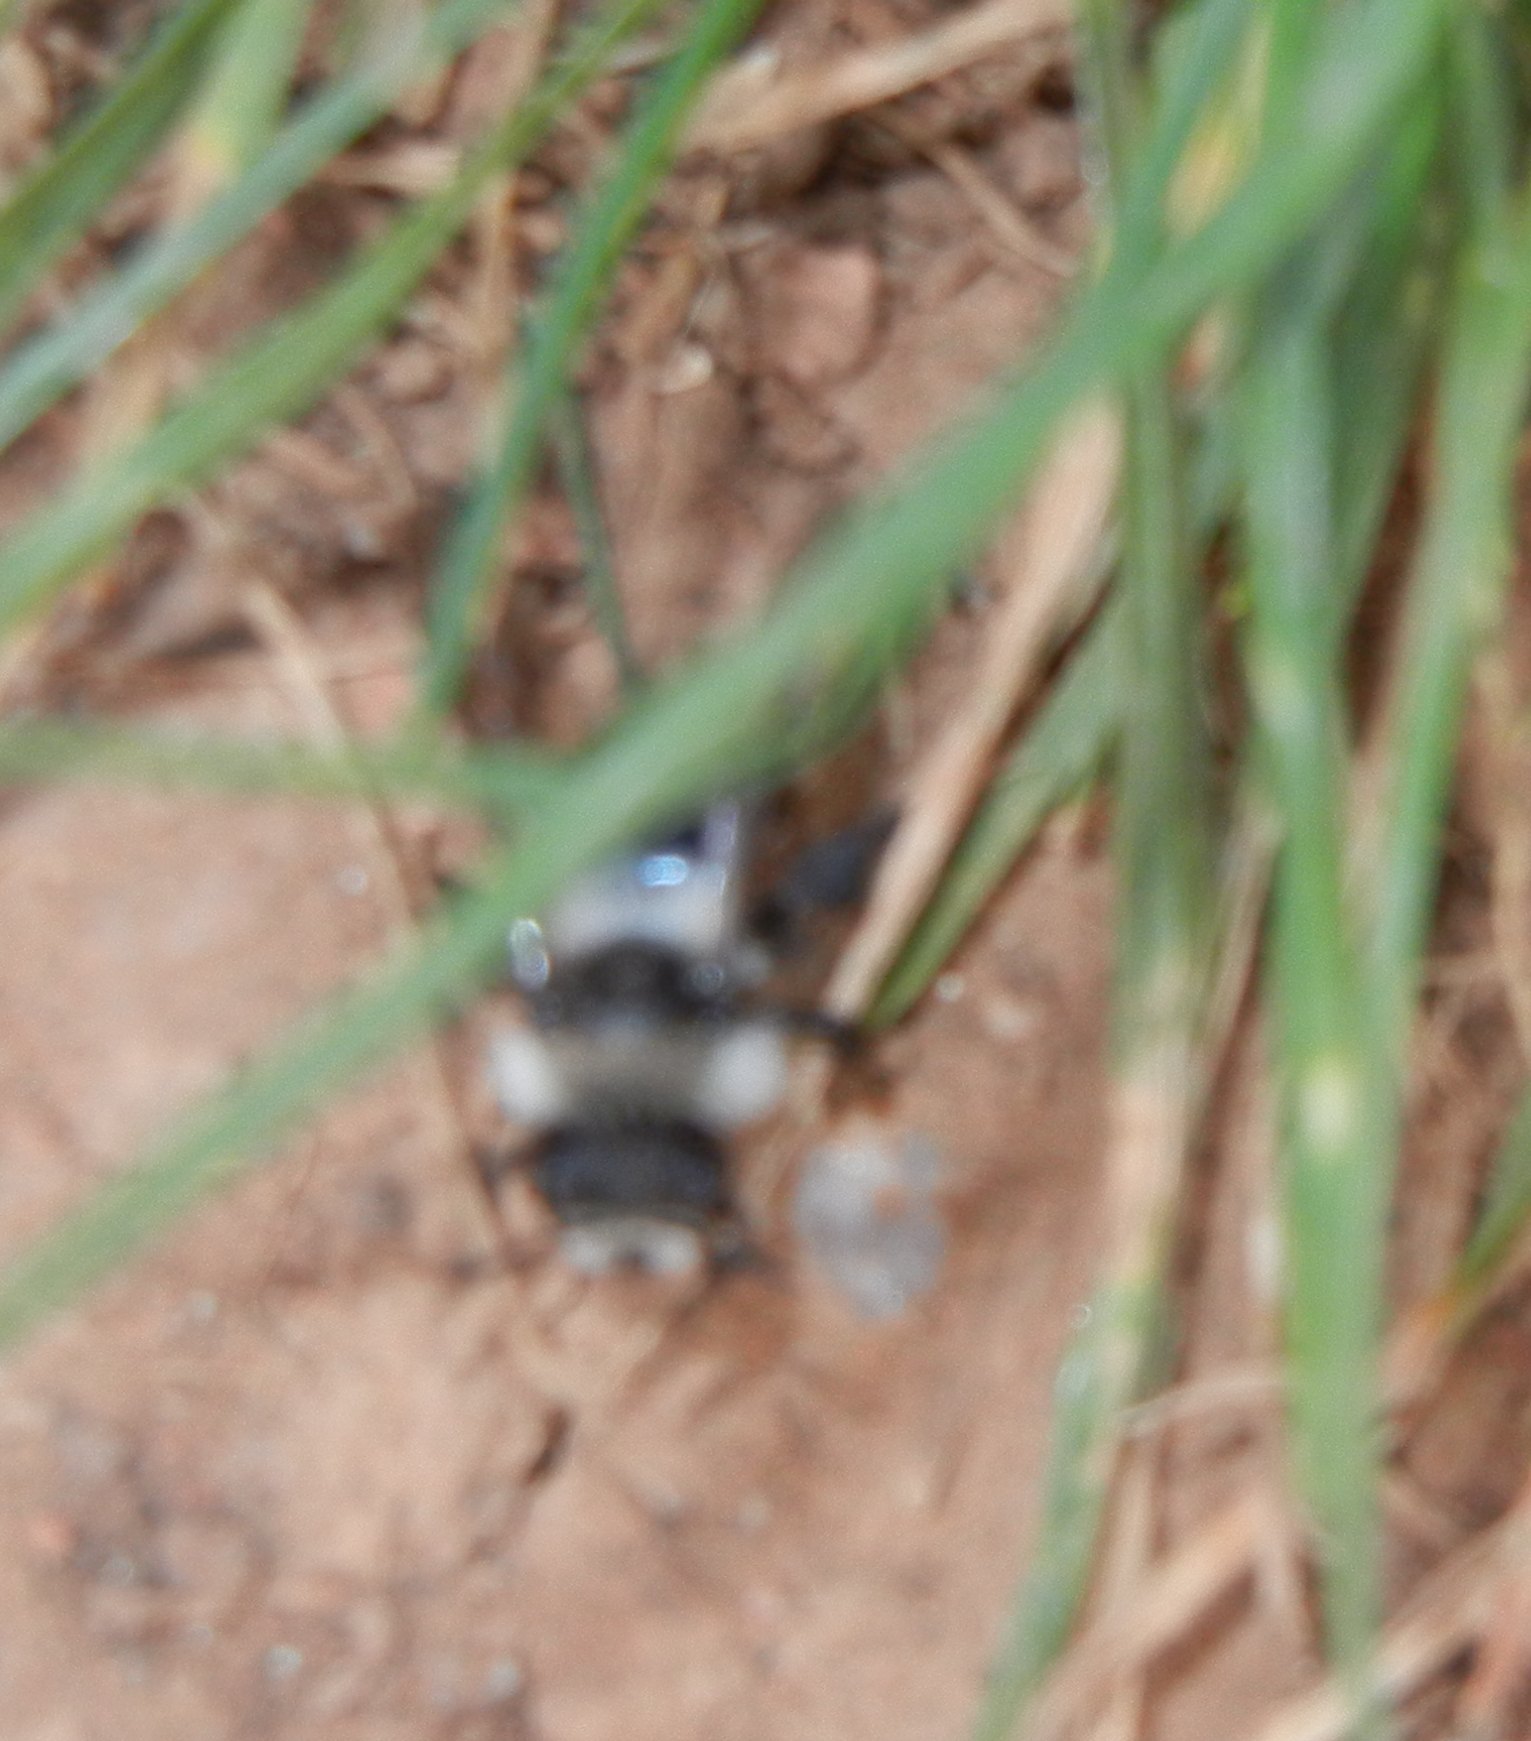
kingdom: Animalia
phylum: Arthropoda
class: Insecta
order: Hymenoptera
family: Andrenidae
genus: Andrena
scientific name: Andrena cineraria
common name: Ashy mining bee
